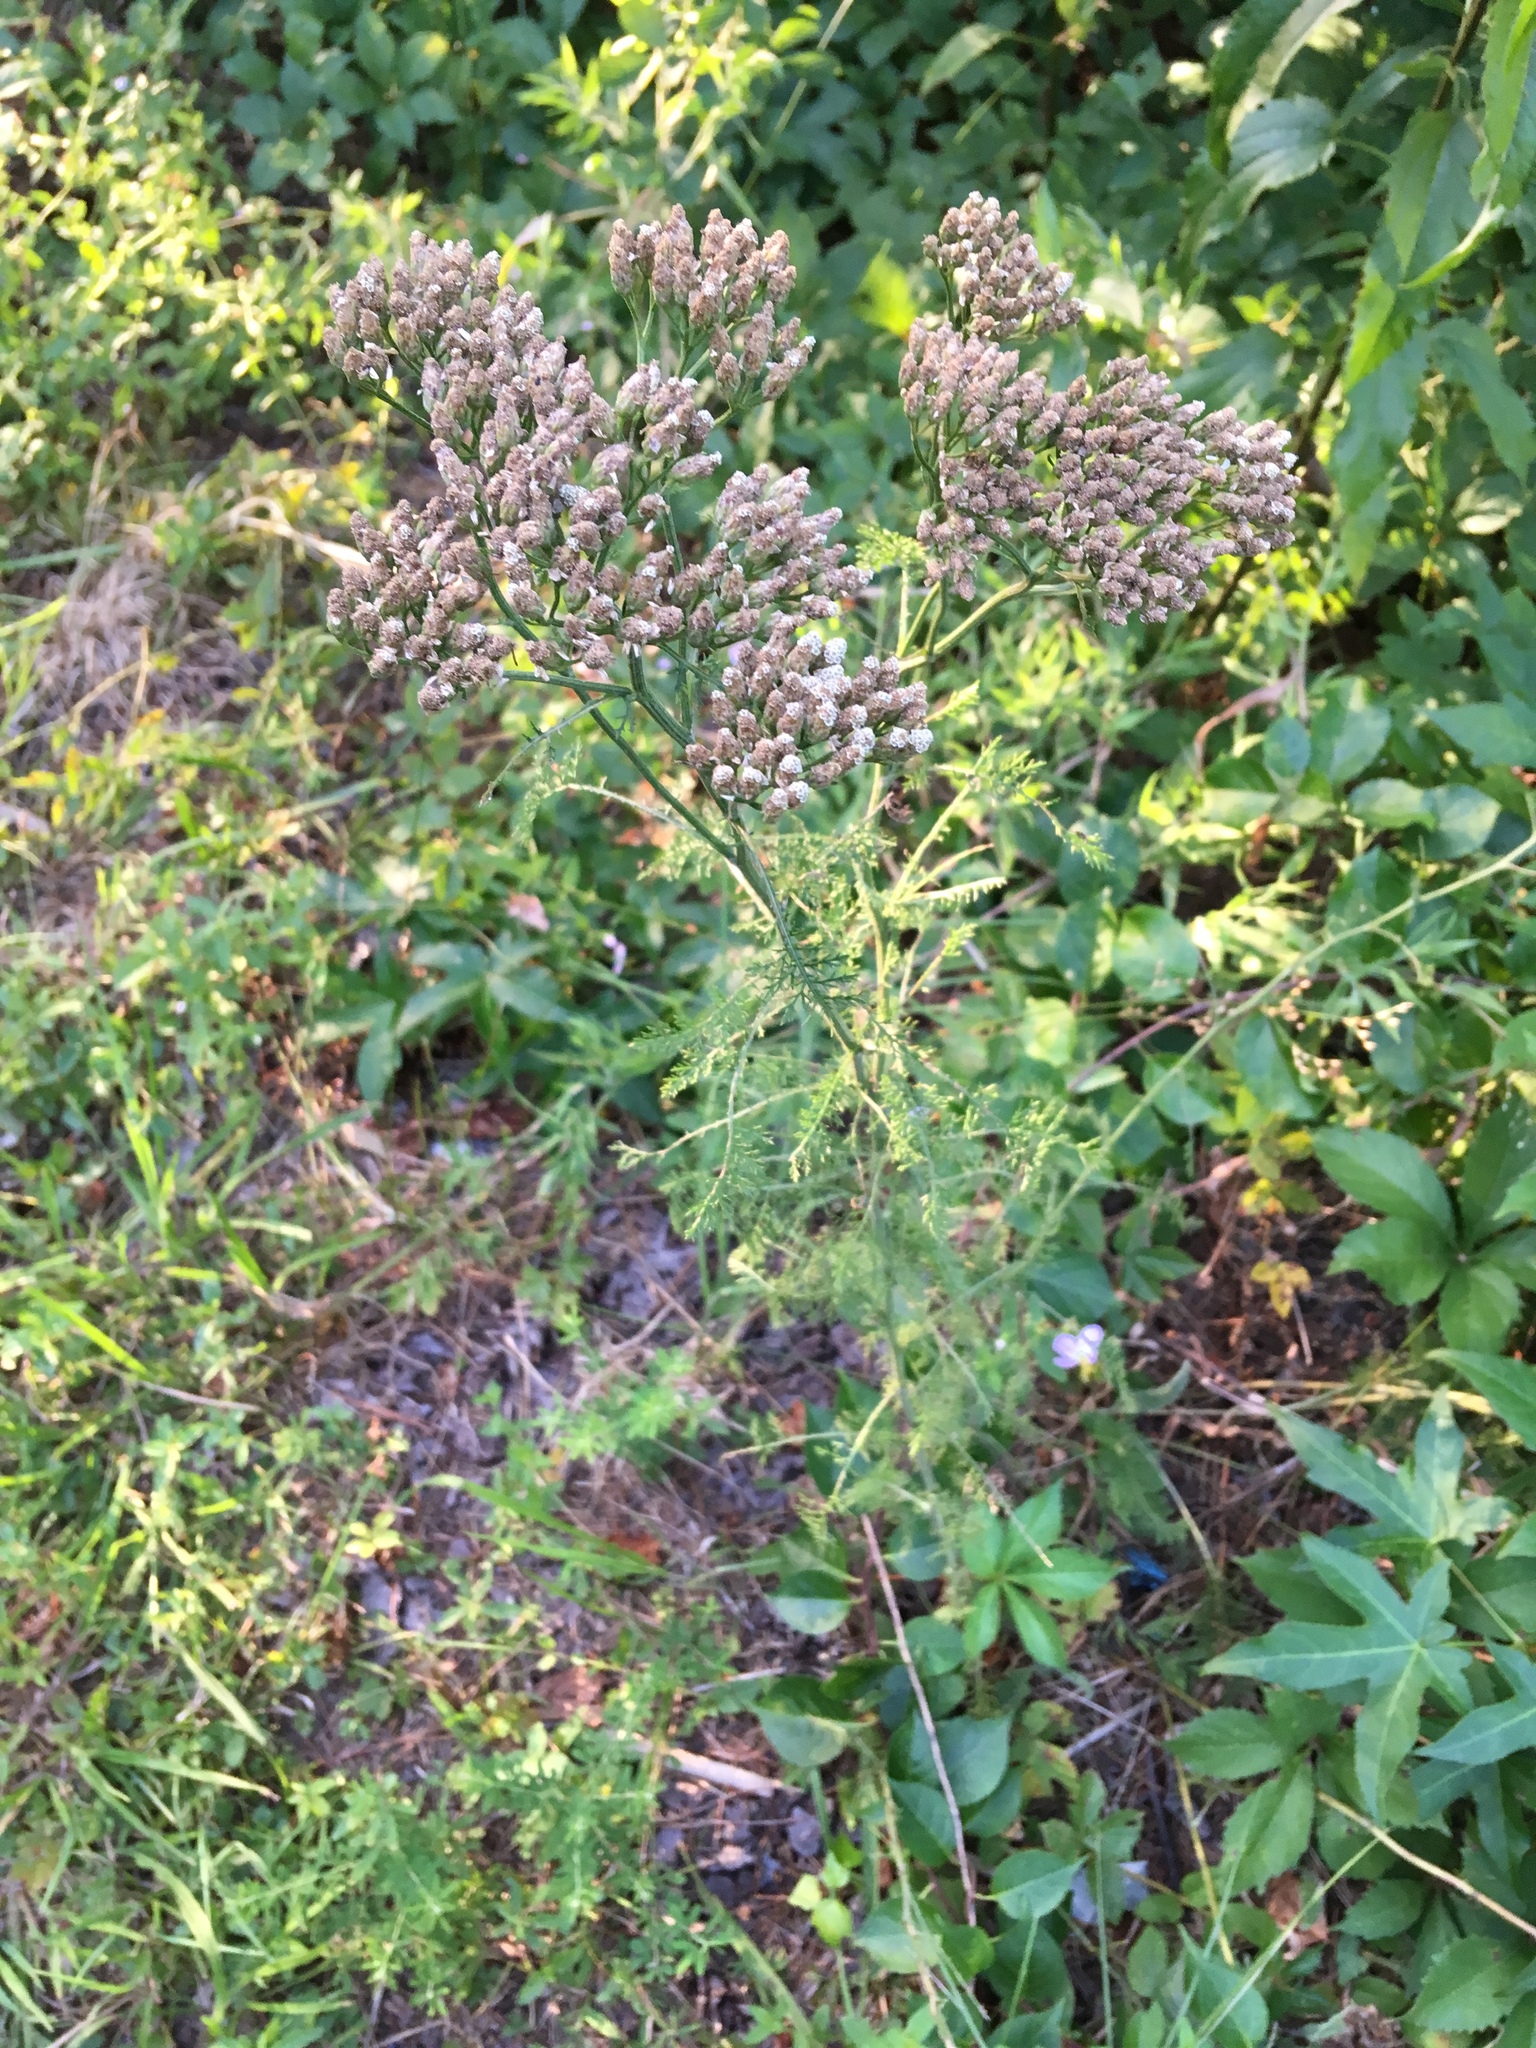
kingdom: Plantae
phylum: Tracheophyta
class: Magnoliopsida
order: Asterales
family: Asteraceae
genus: Achillea
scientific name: Achillea millefolium
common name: Yarrow
